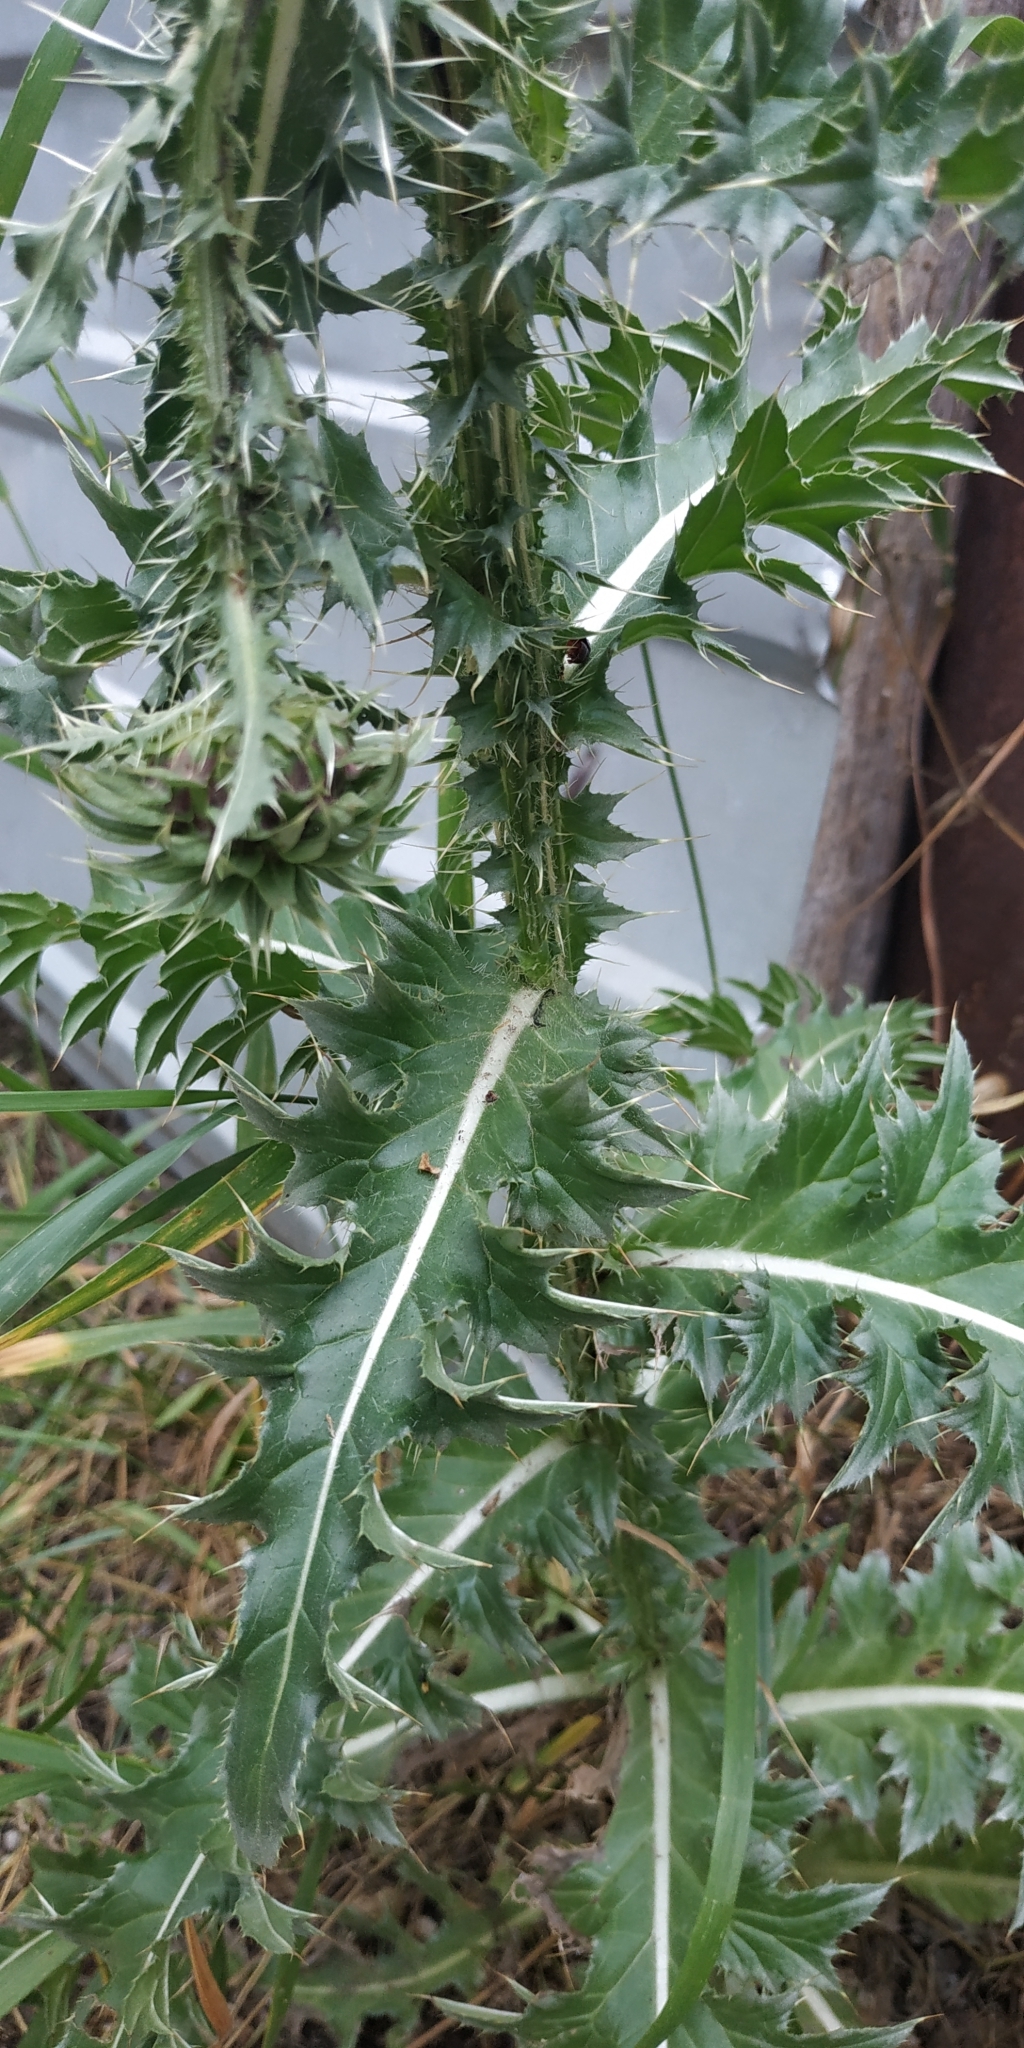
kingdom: Plantae
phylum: Tracheophyta
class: Magnoliopsida
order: Asterales
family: Asteraceae
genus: Carduus
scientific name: Carduus nutans
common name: Musk thistle
